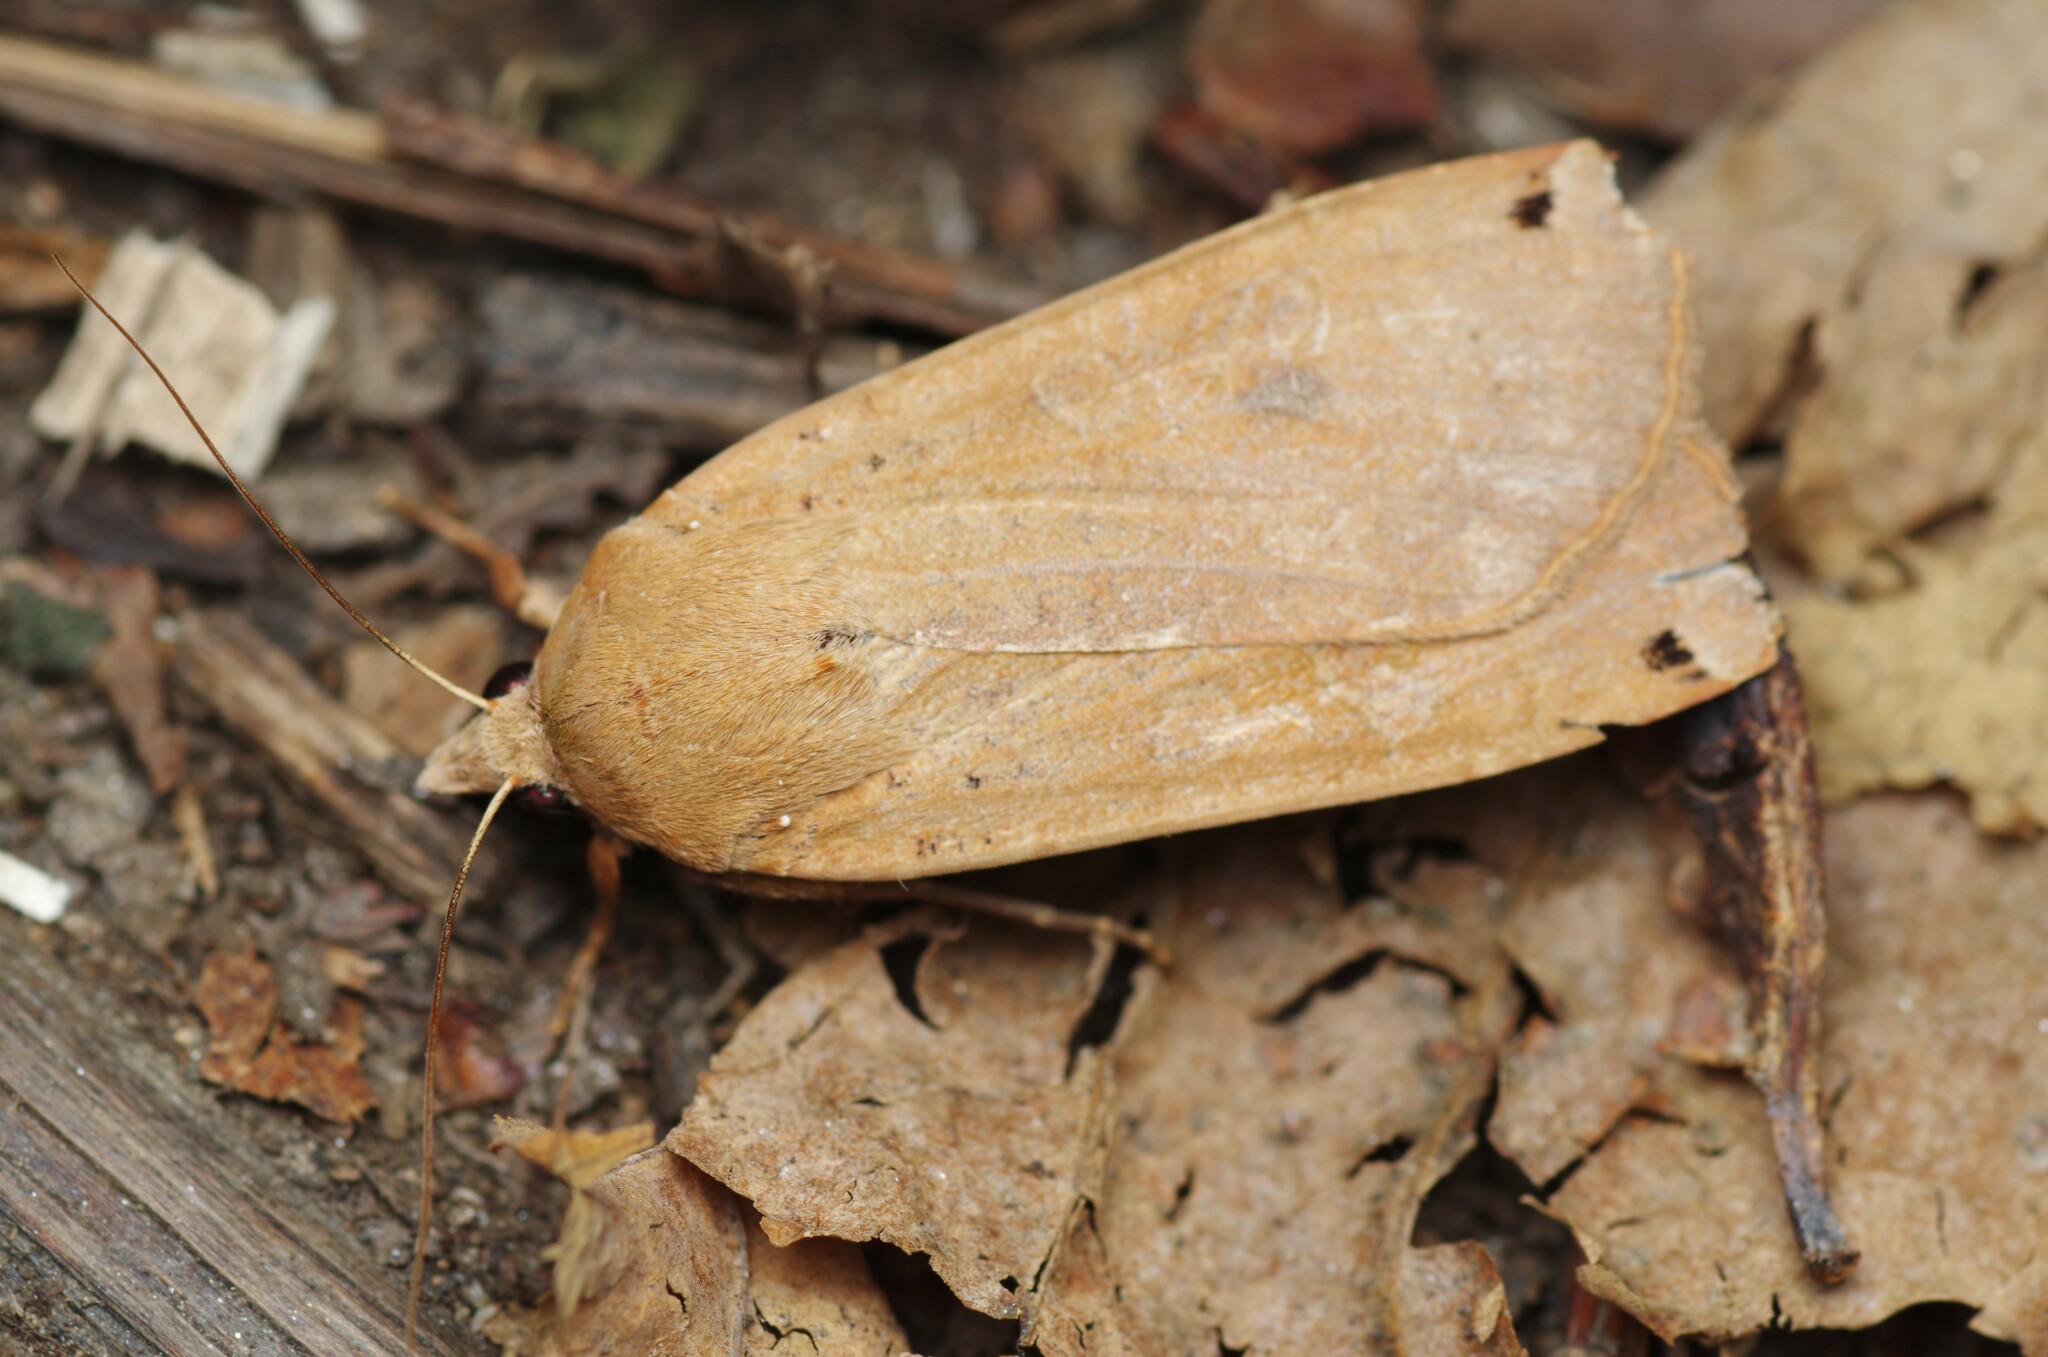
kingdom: Animalia
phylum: Arthropoda
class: Insecta
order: Lepidoptera
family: Noctuidae
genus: Noctua
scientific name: Noctua pronuba
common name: Large yellow underwing
